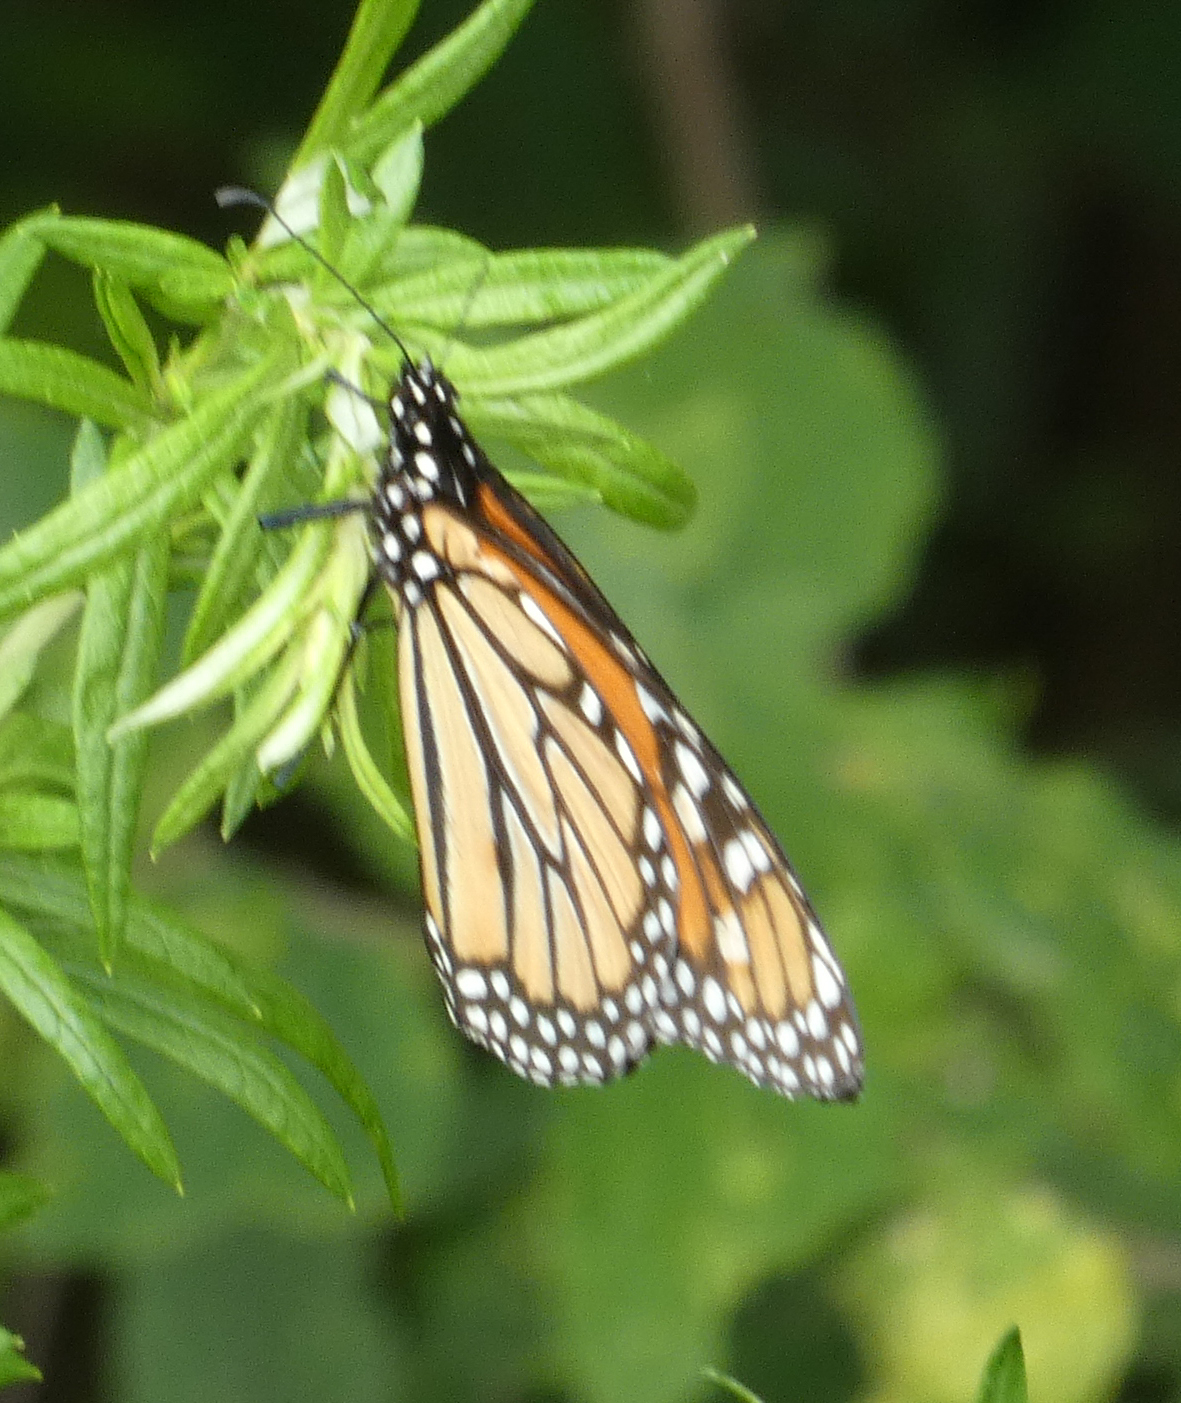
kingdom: Animalia
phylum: Arthropoda
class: Insecta
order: Lepidoptera
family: Nymphalidae
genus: Danaus
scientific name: Danaus plexippus
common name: Monarch
